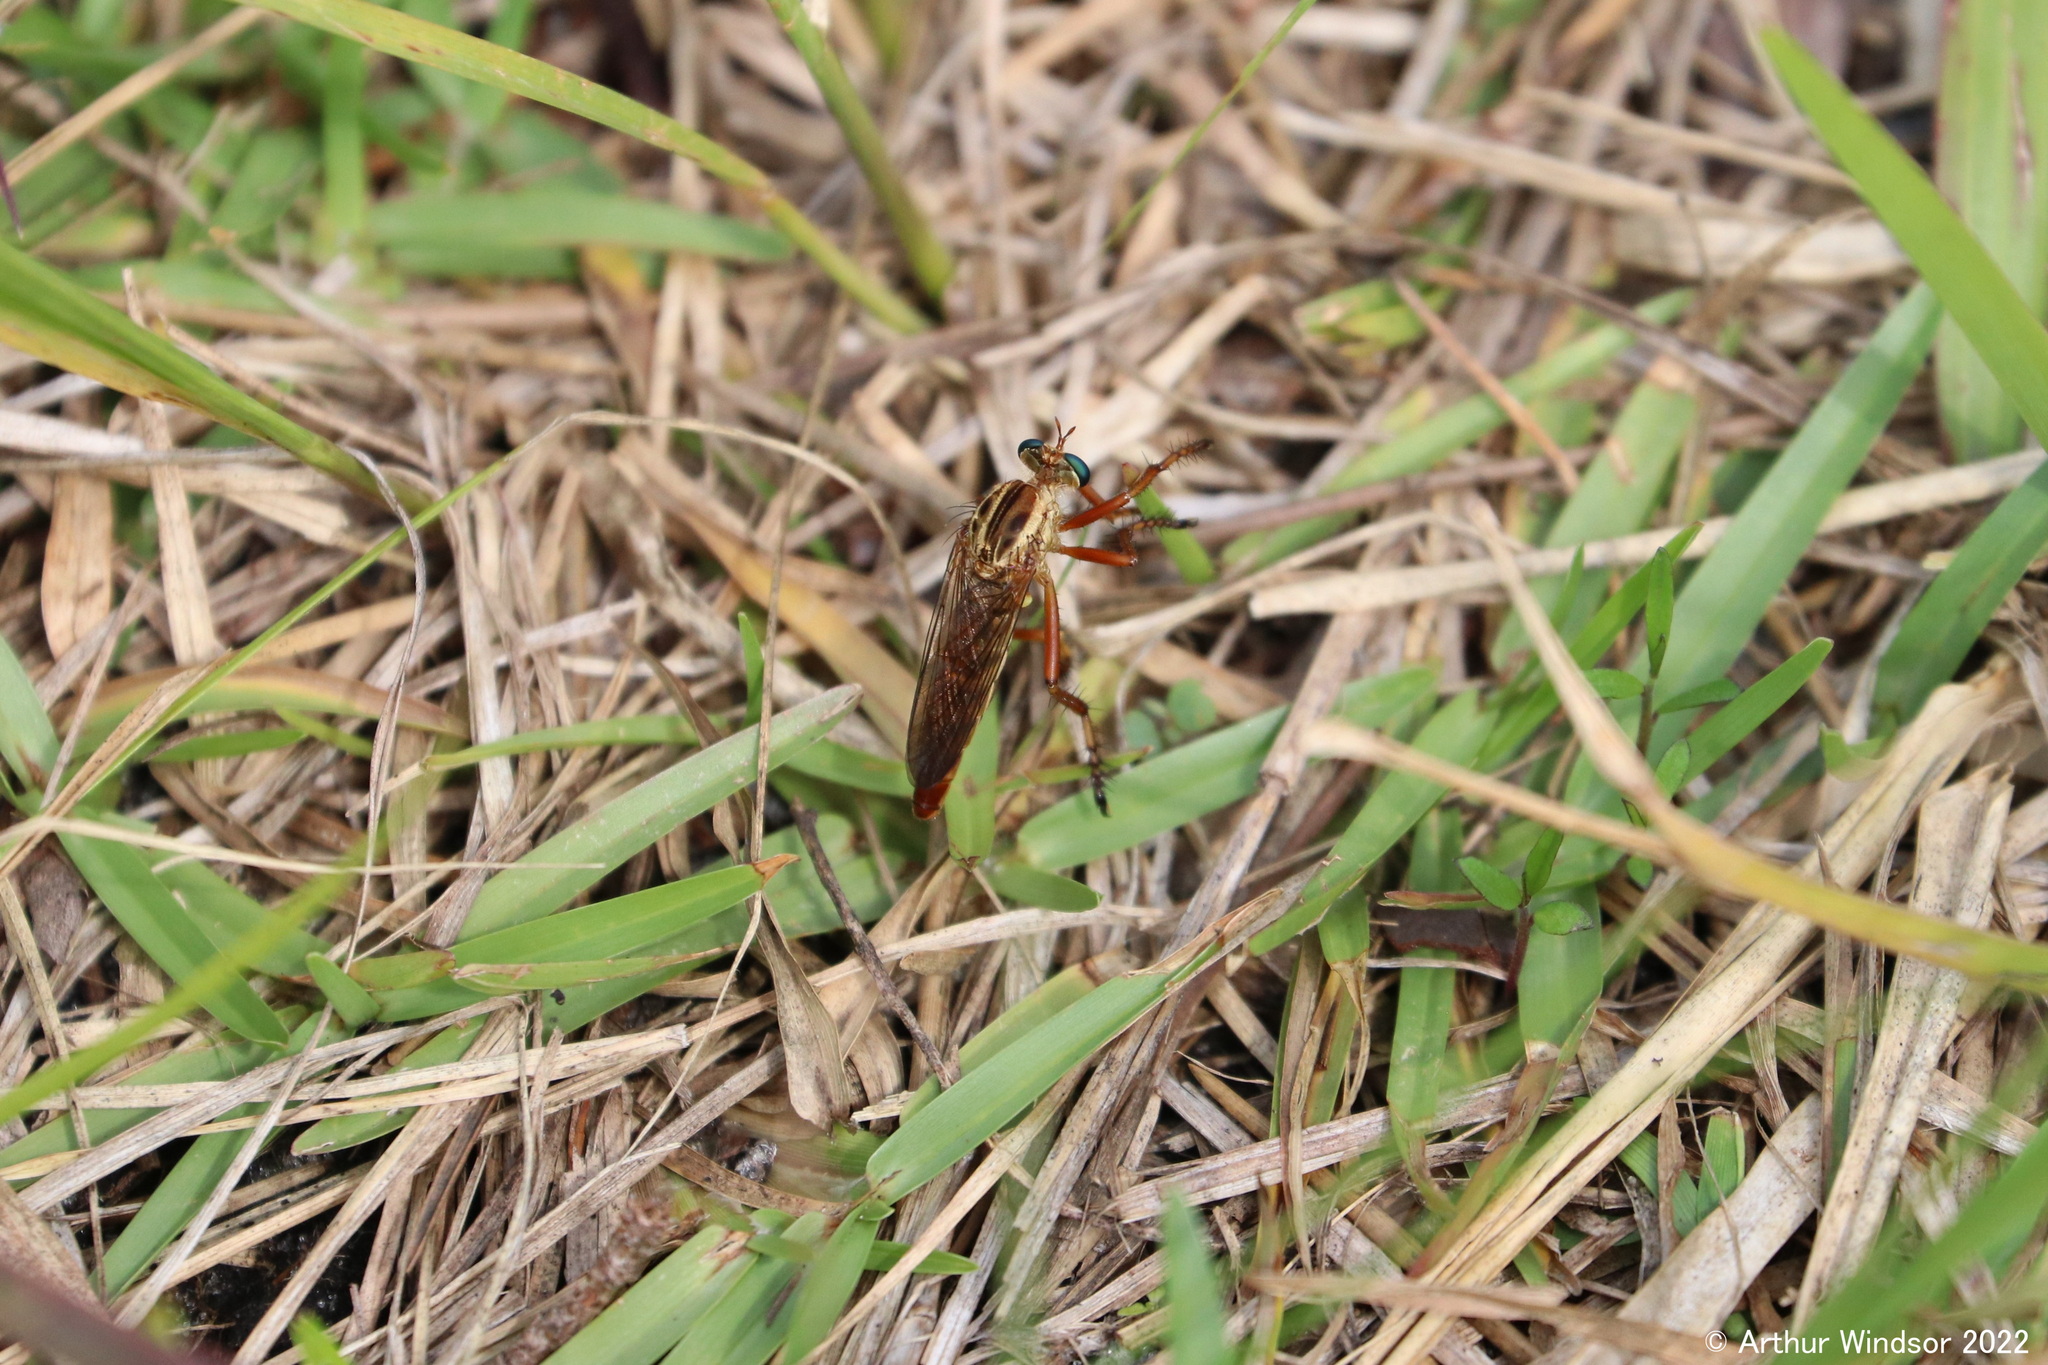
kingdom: Animalia
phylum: Arthropoda
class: Insecta
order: Diptera
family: Asilidae
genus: Diogmites
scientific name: Diogmites salutans
